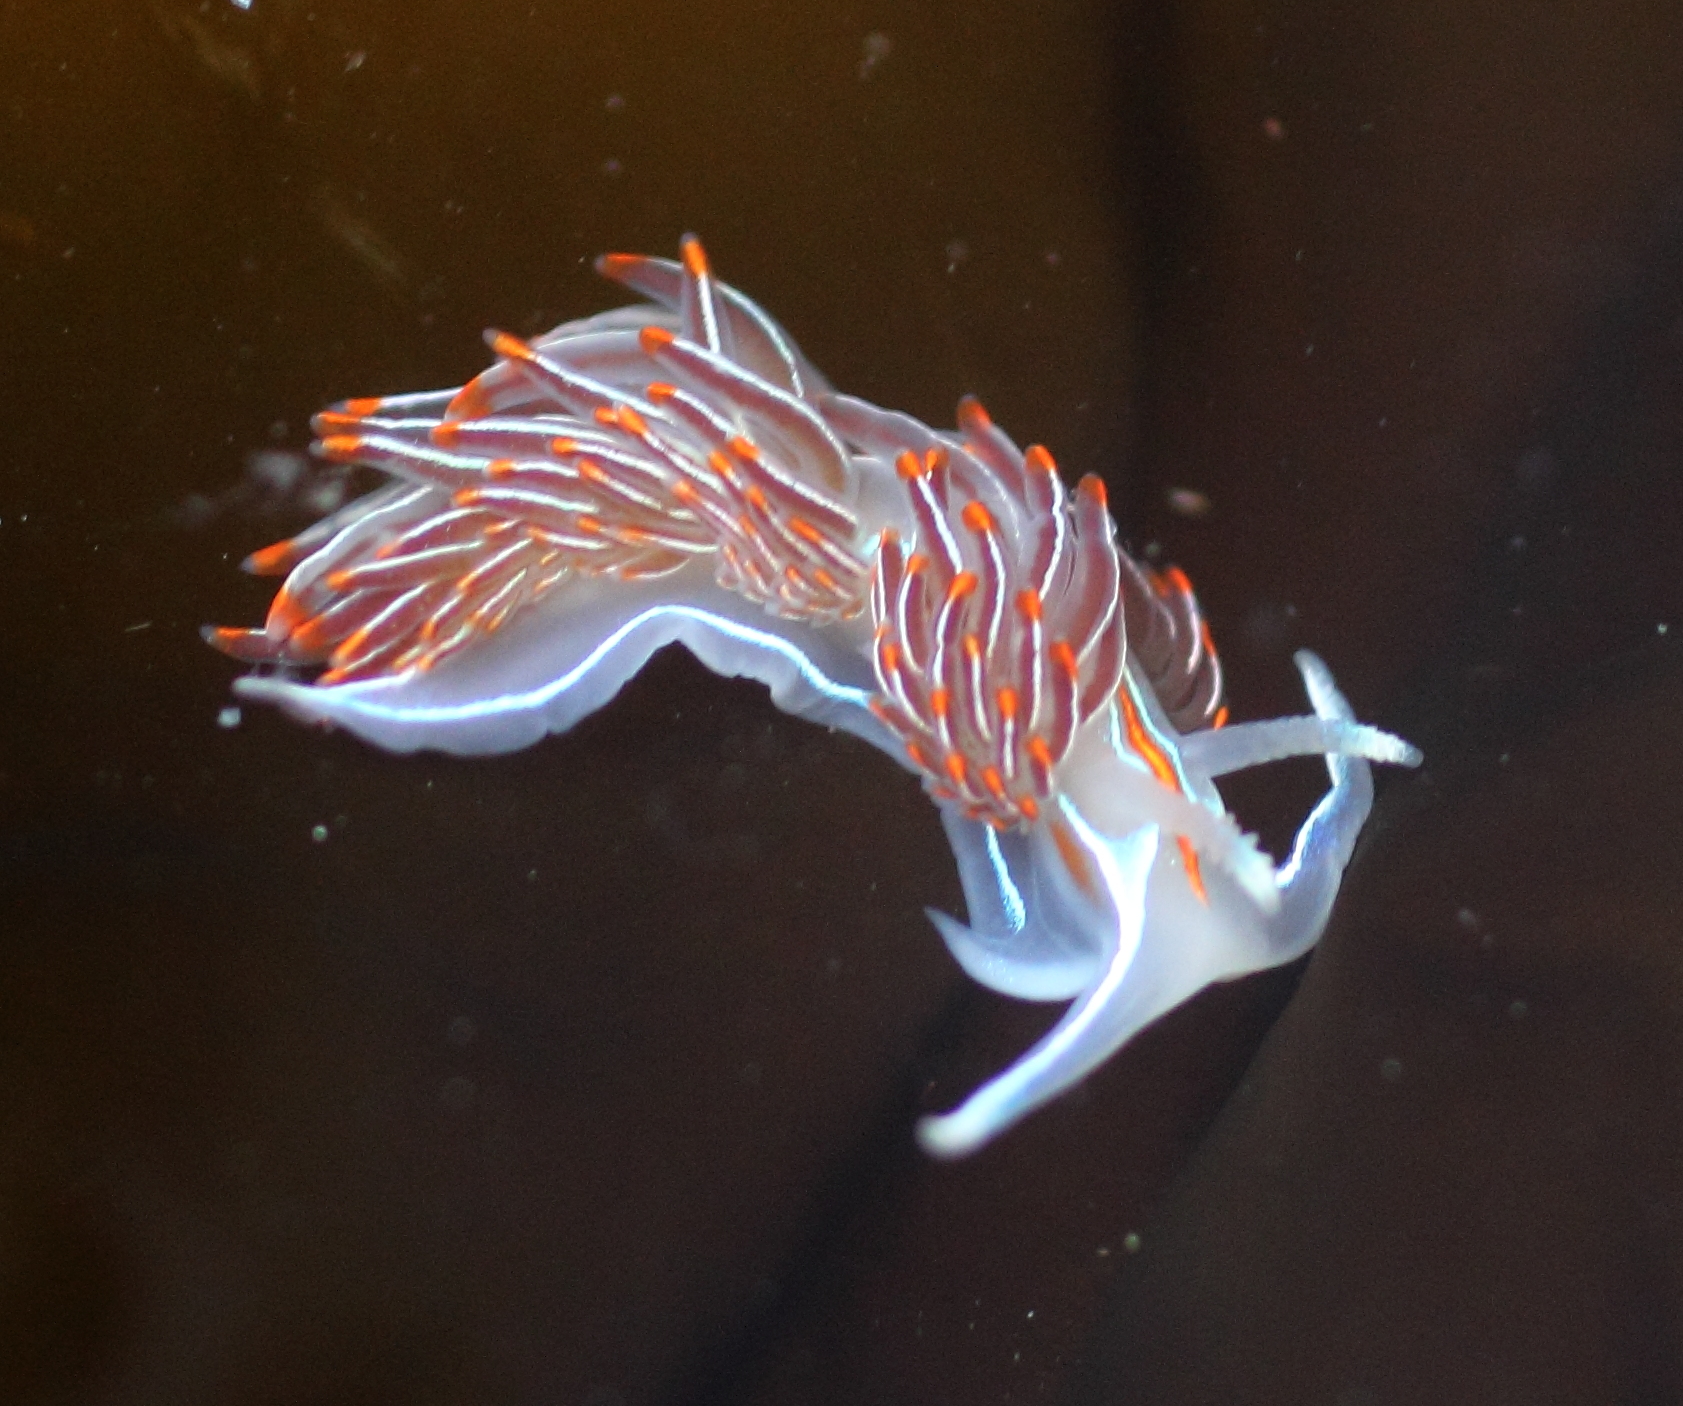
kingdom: Animalia
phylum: Mollusca
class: Gastropoda
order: Nudibranchia
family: Myrrhinidae
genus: Hermissenda
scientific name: Hermissenda crassicornis
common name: Hermissenda
